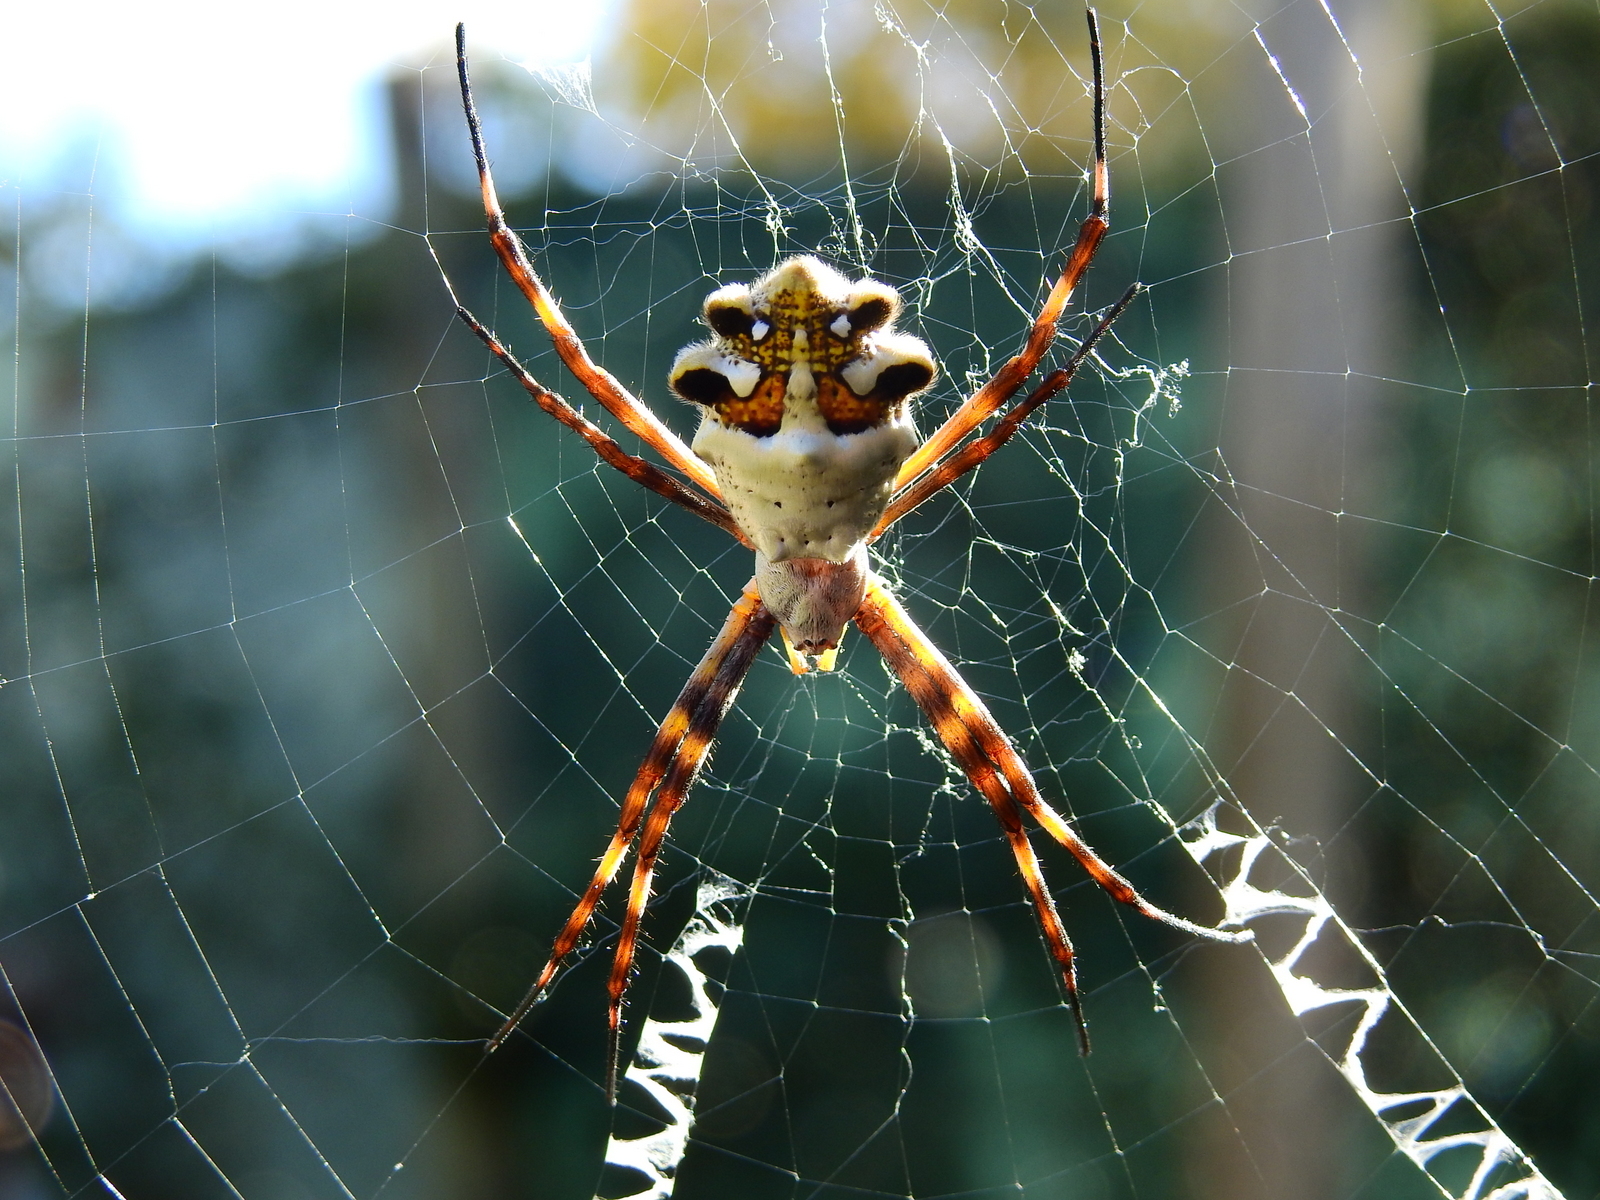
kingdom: Animalia
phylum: Arthropoda
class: Arachnida
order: Araneae
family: Araneidae
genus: Argiope
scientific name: Argiope argentata
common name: Orb weavers
